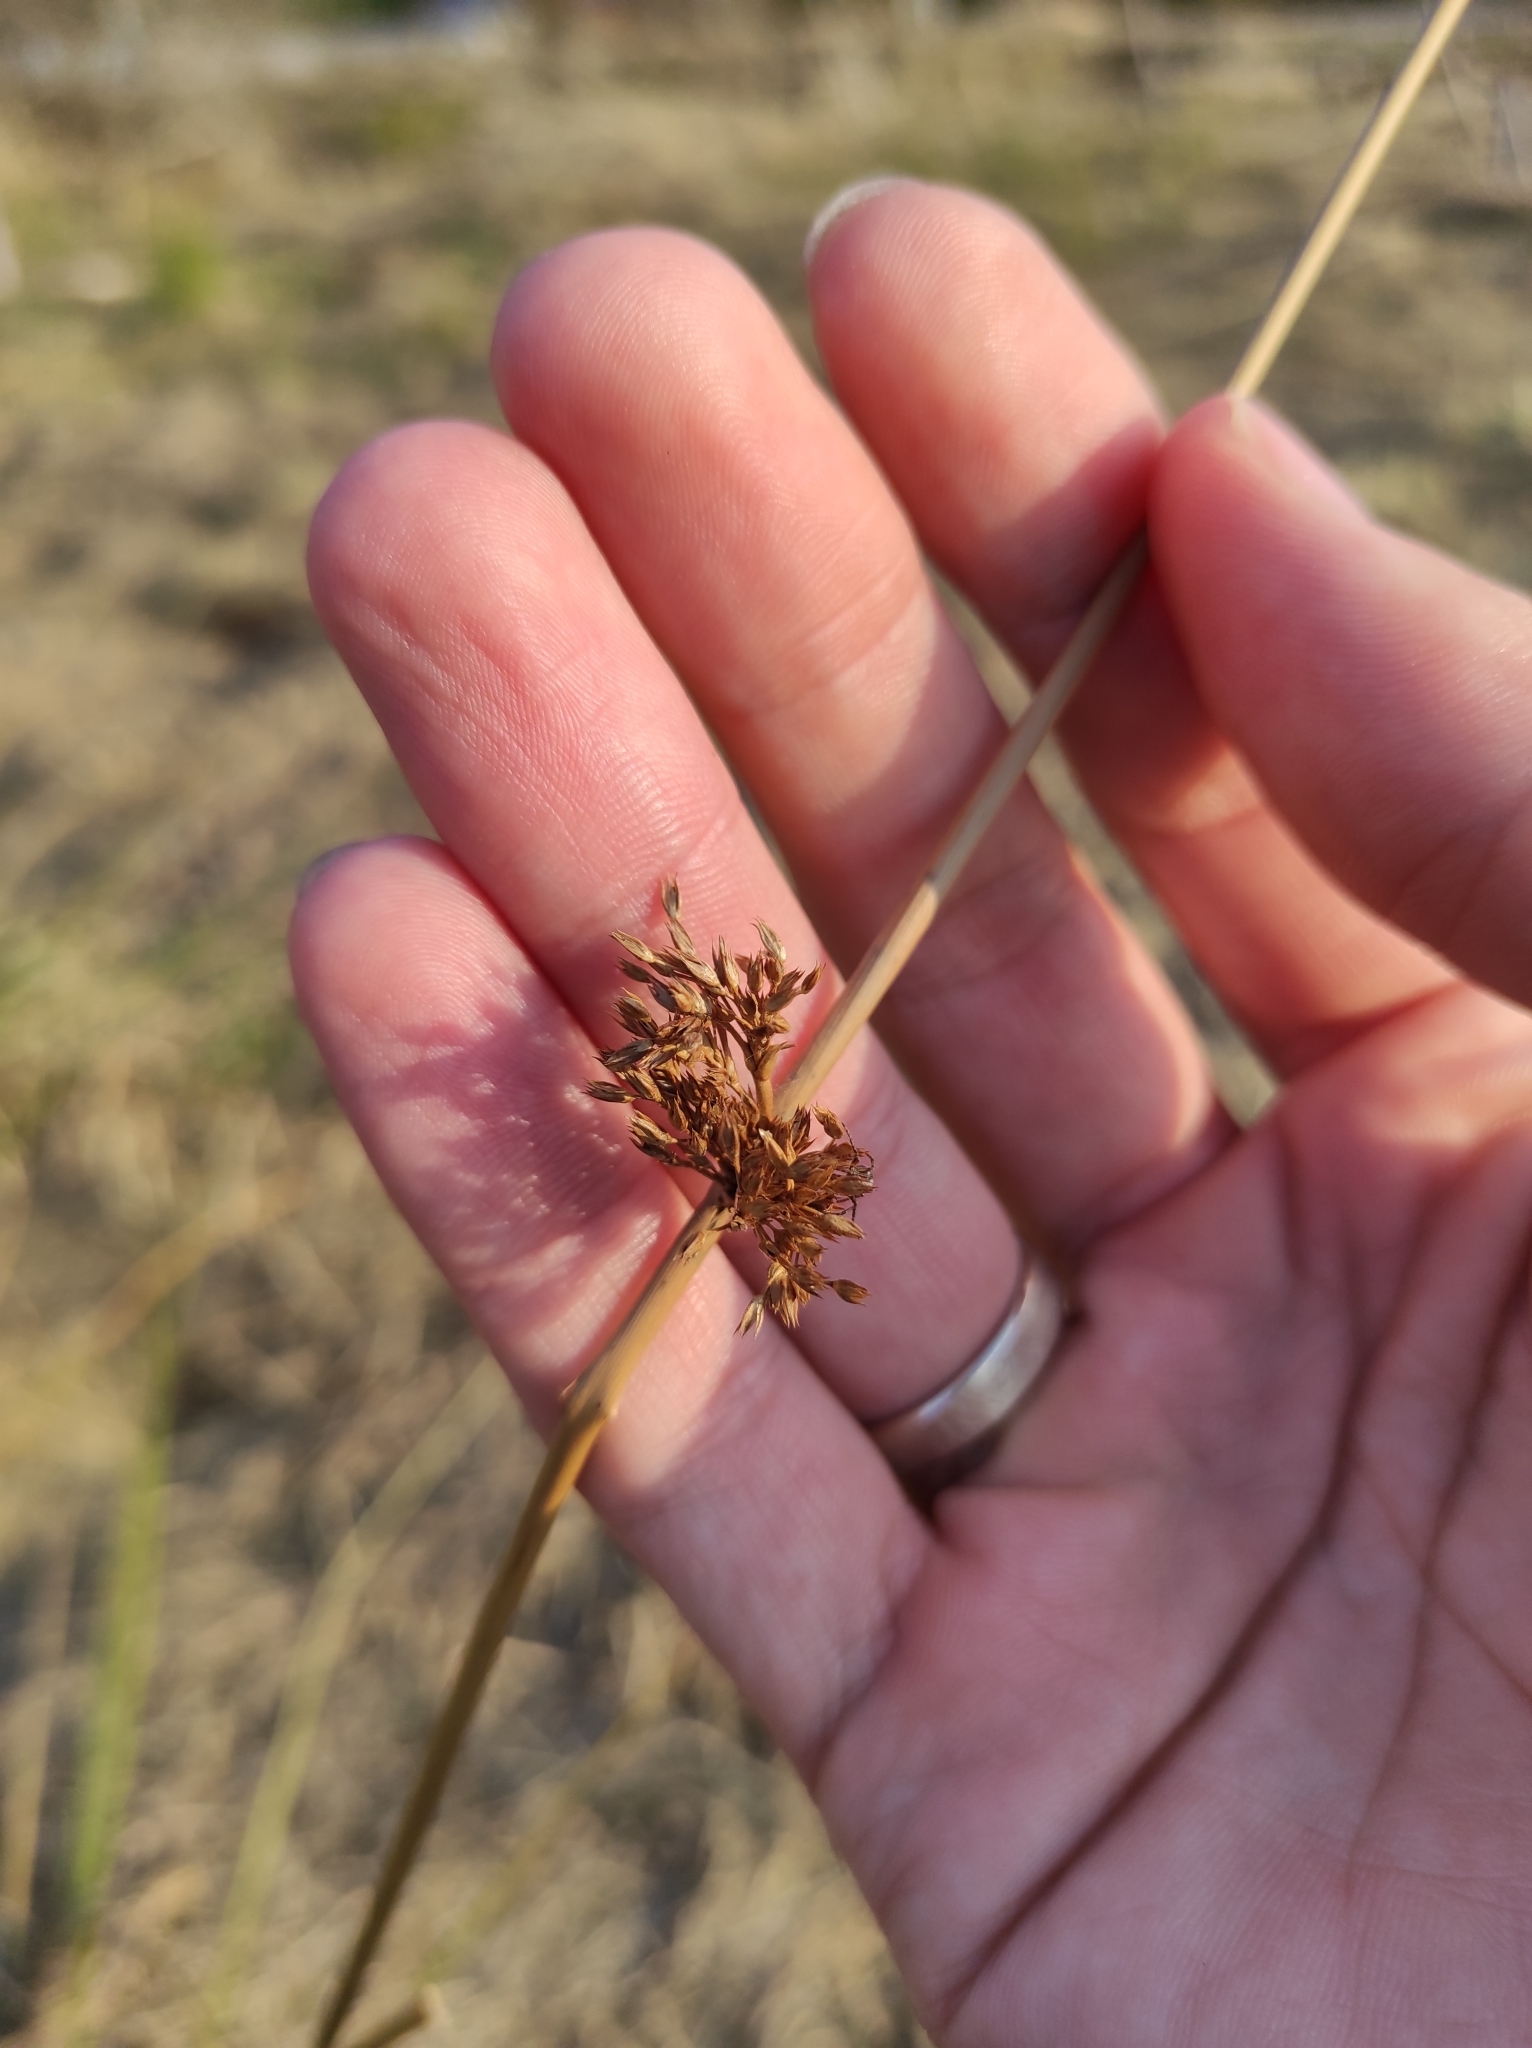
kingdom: Plantae
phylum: Tracheophyta
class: Liliopsida
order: Poales
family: Juncaceae
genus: Juncus
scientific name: Juncus effusus
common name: Soft rush
